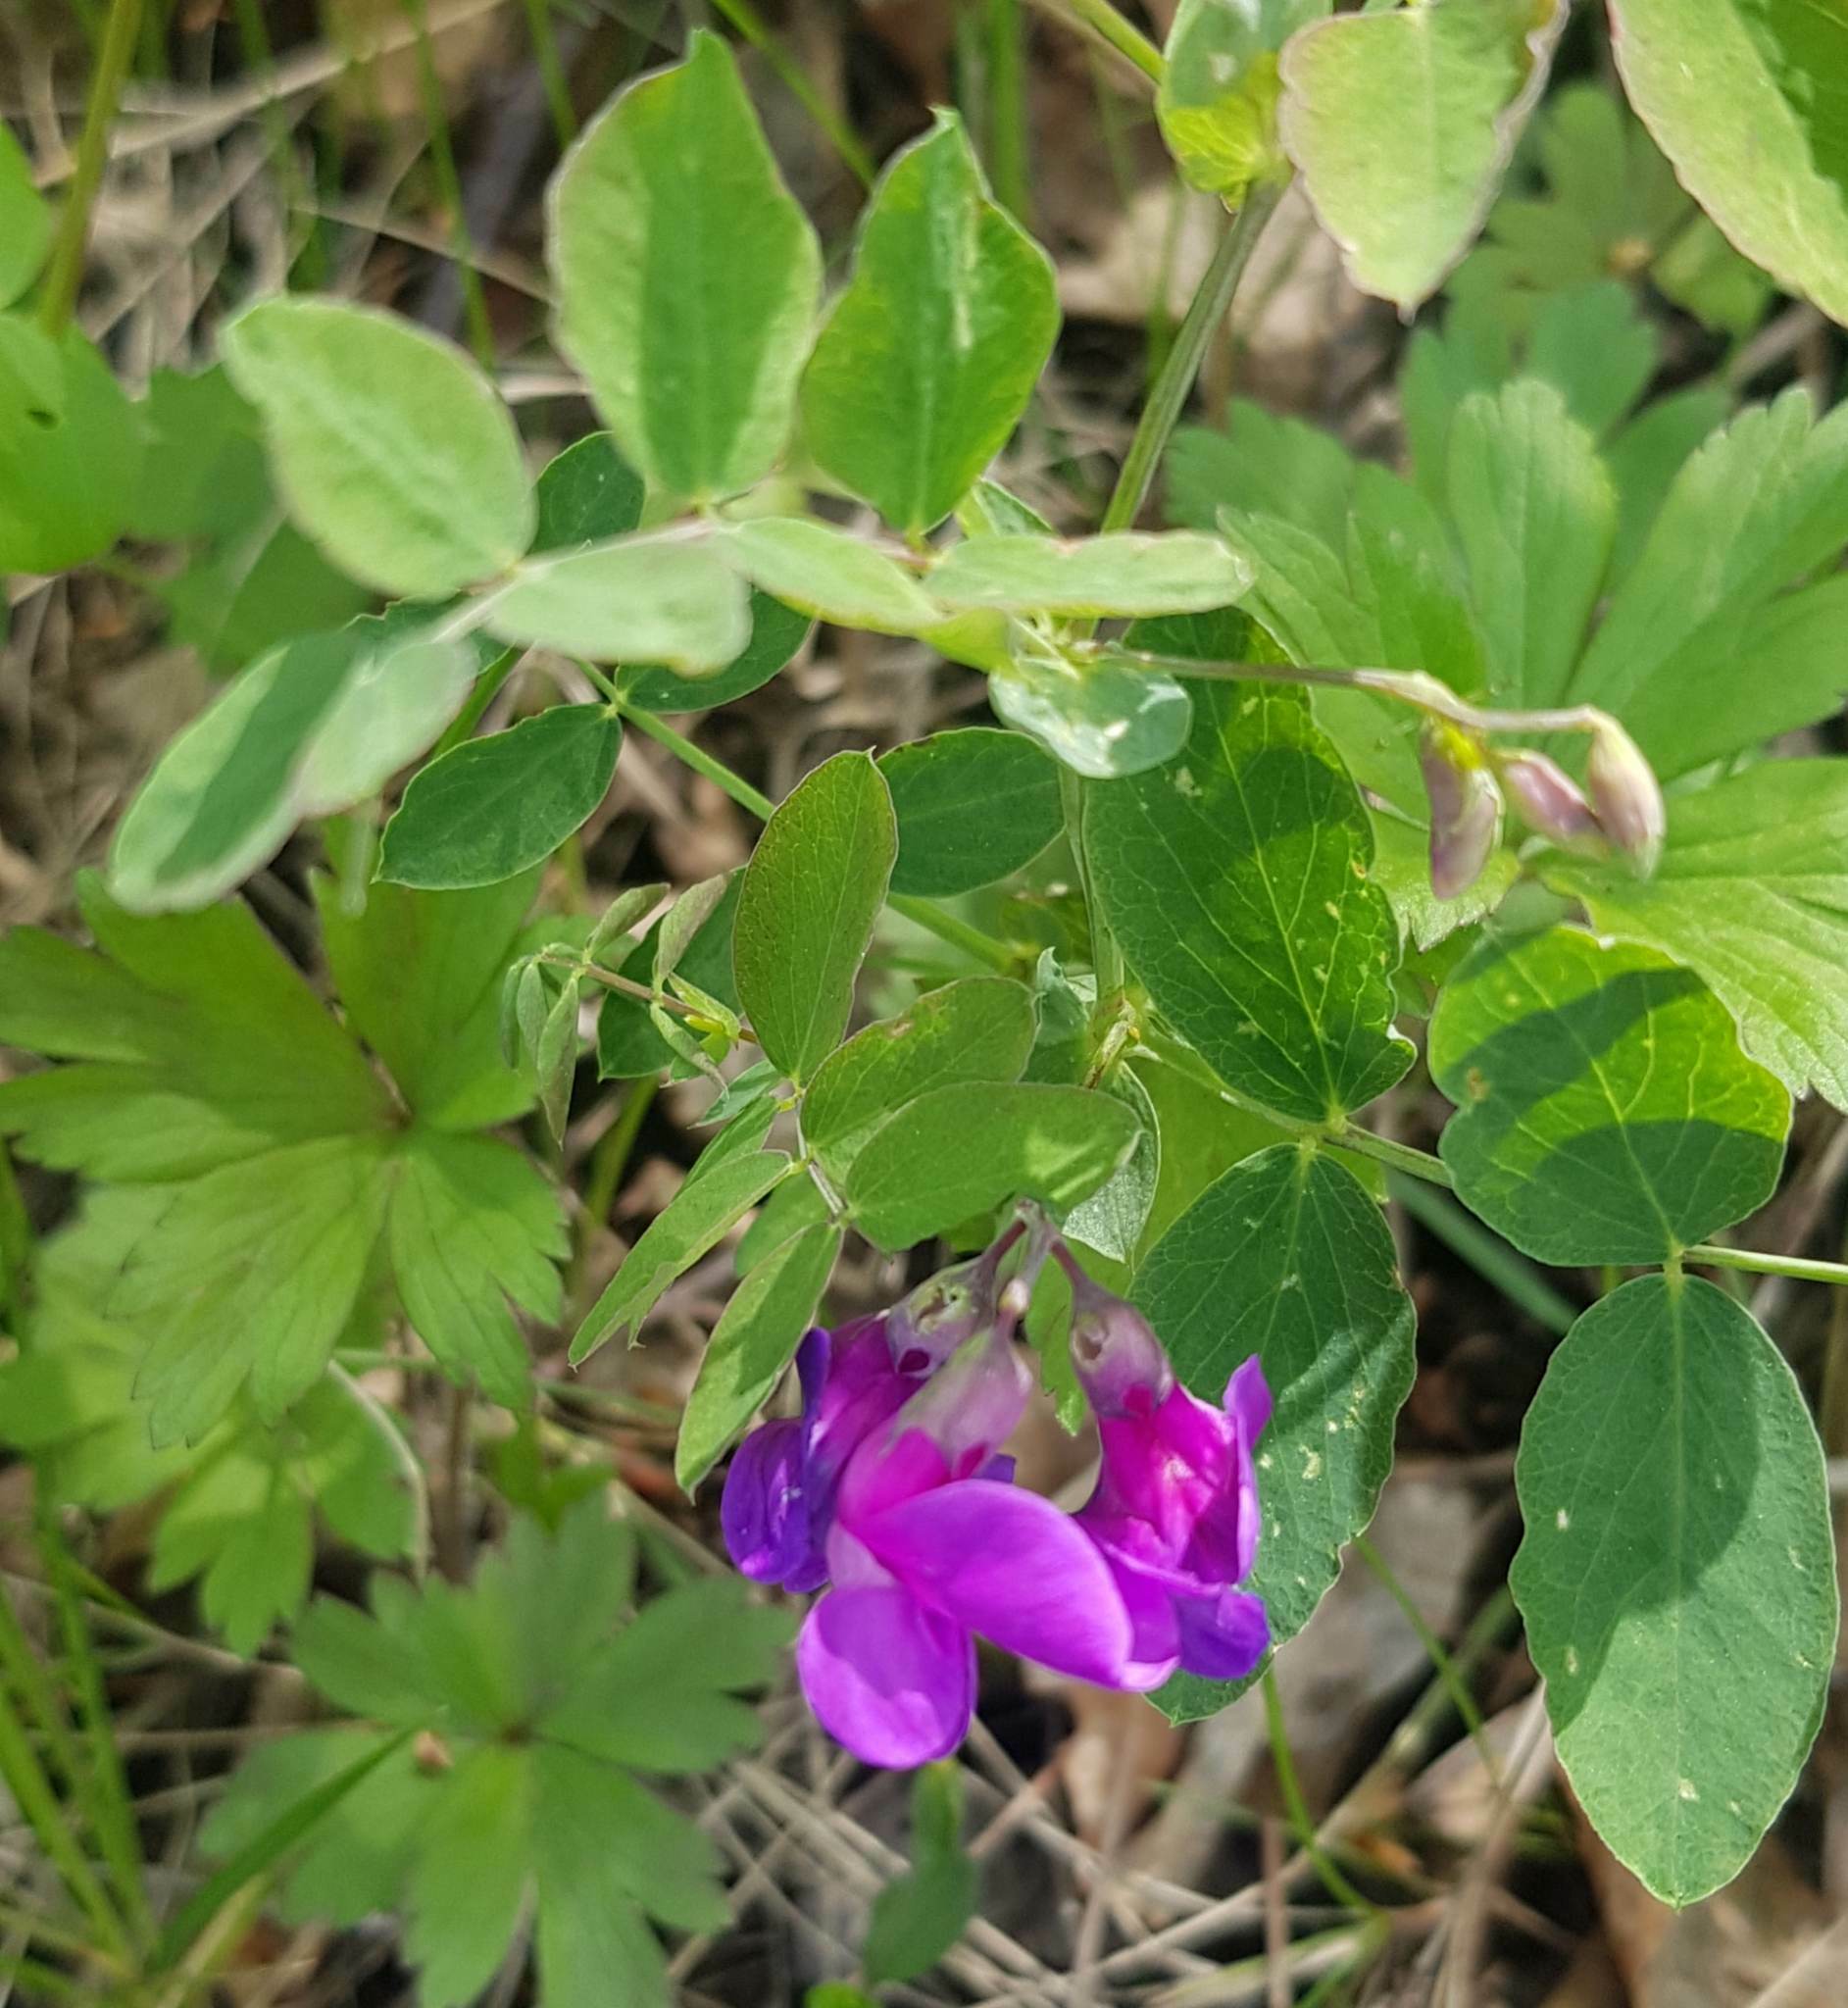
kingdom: Plantae
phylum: Tracheophyta
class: Magnoliopsida
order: Fabales
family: Fabaceae
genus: Lathyrus
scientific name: Lathyrus humilis
